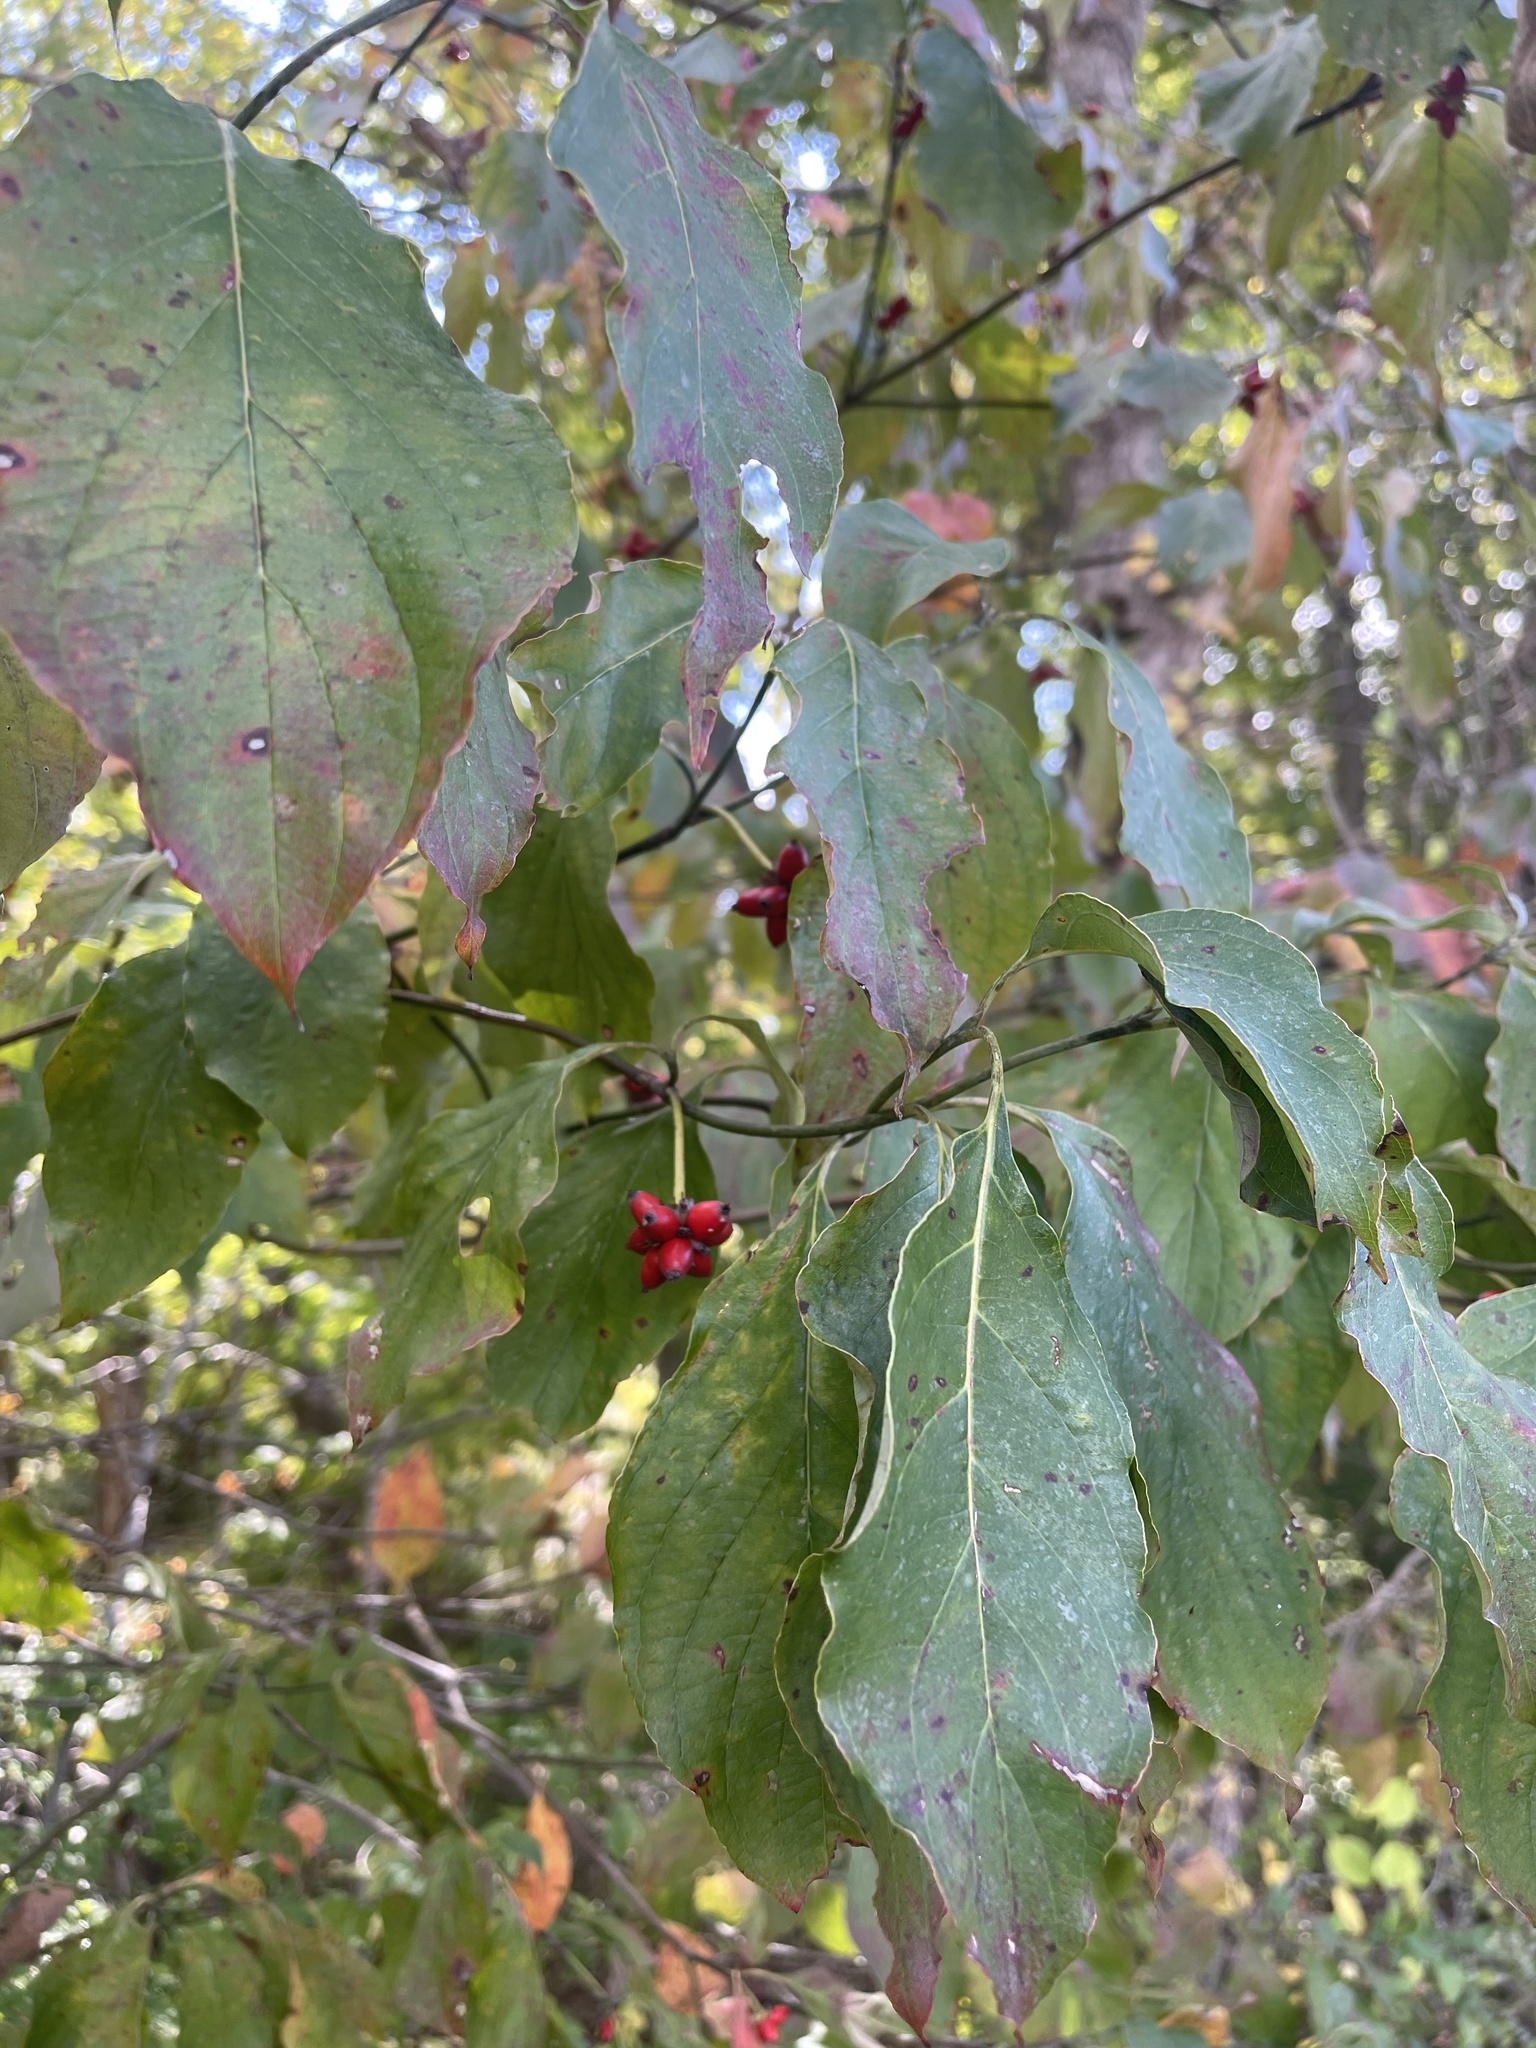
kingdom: Plantae
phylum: Tracheophyta
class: Magnoliopsida
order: Cornales
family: Cornaceae
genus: Cornus
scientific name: Cornus florida
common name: Flowering dogwood
